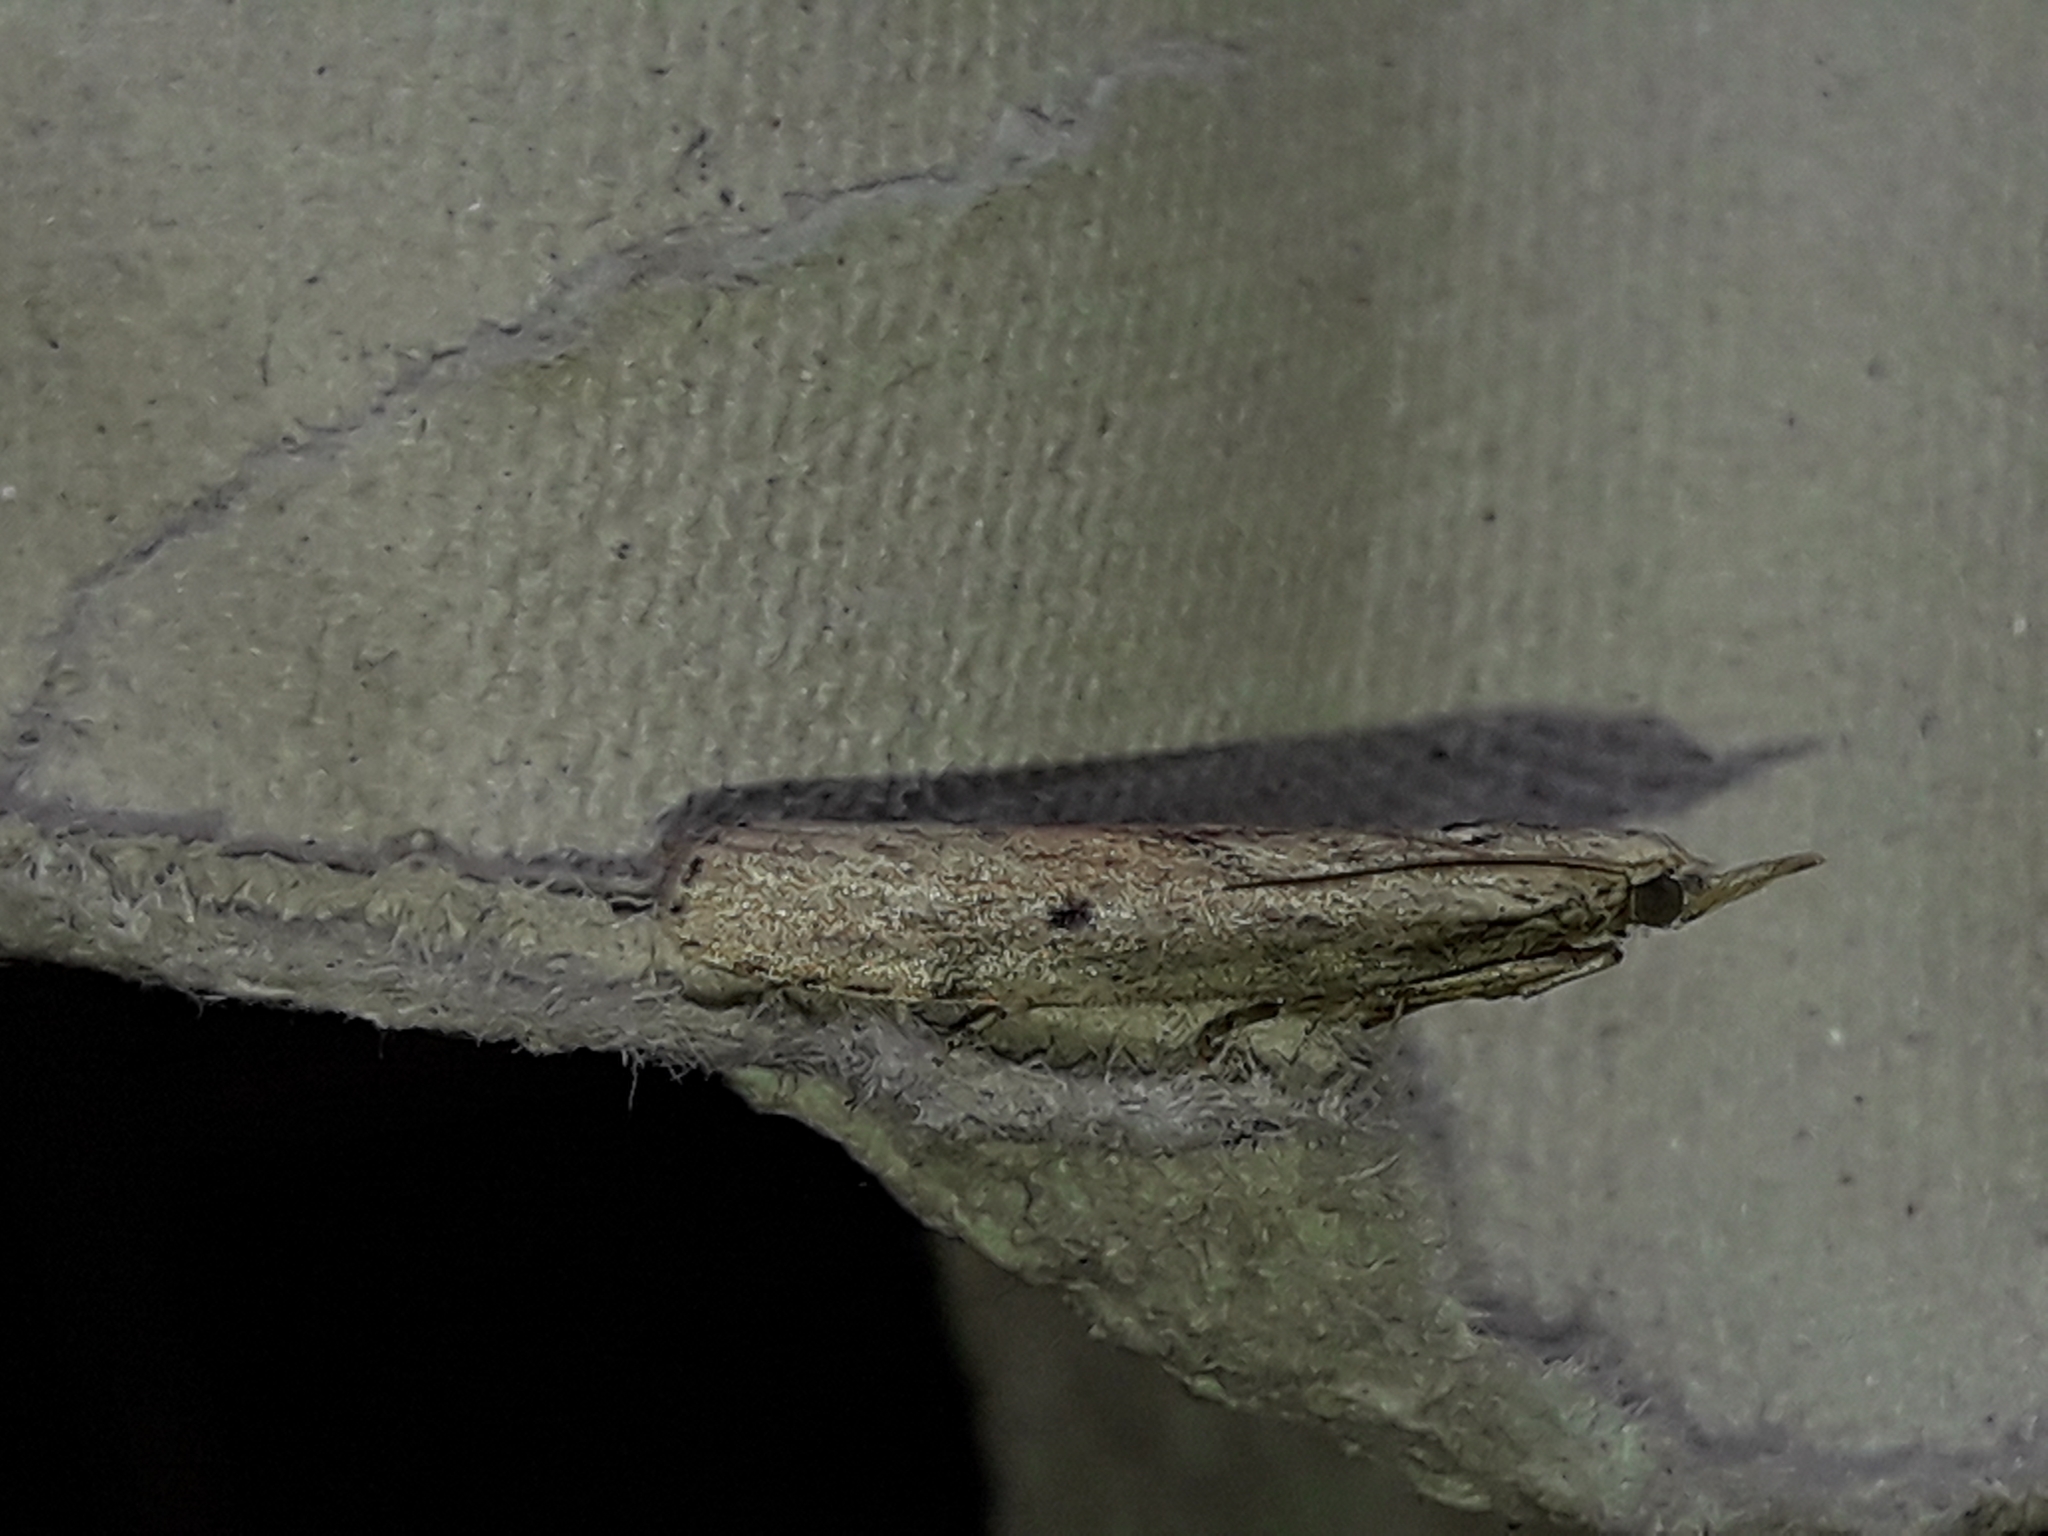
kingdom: Animalia
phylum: Arthropoda
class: Insecta
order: Lepidoptera
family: Pyralidae
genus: Aphomia
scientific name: Aphomia sociella
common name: Bee moth
